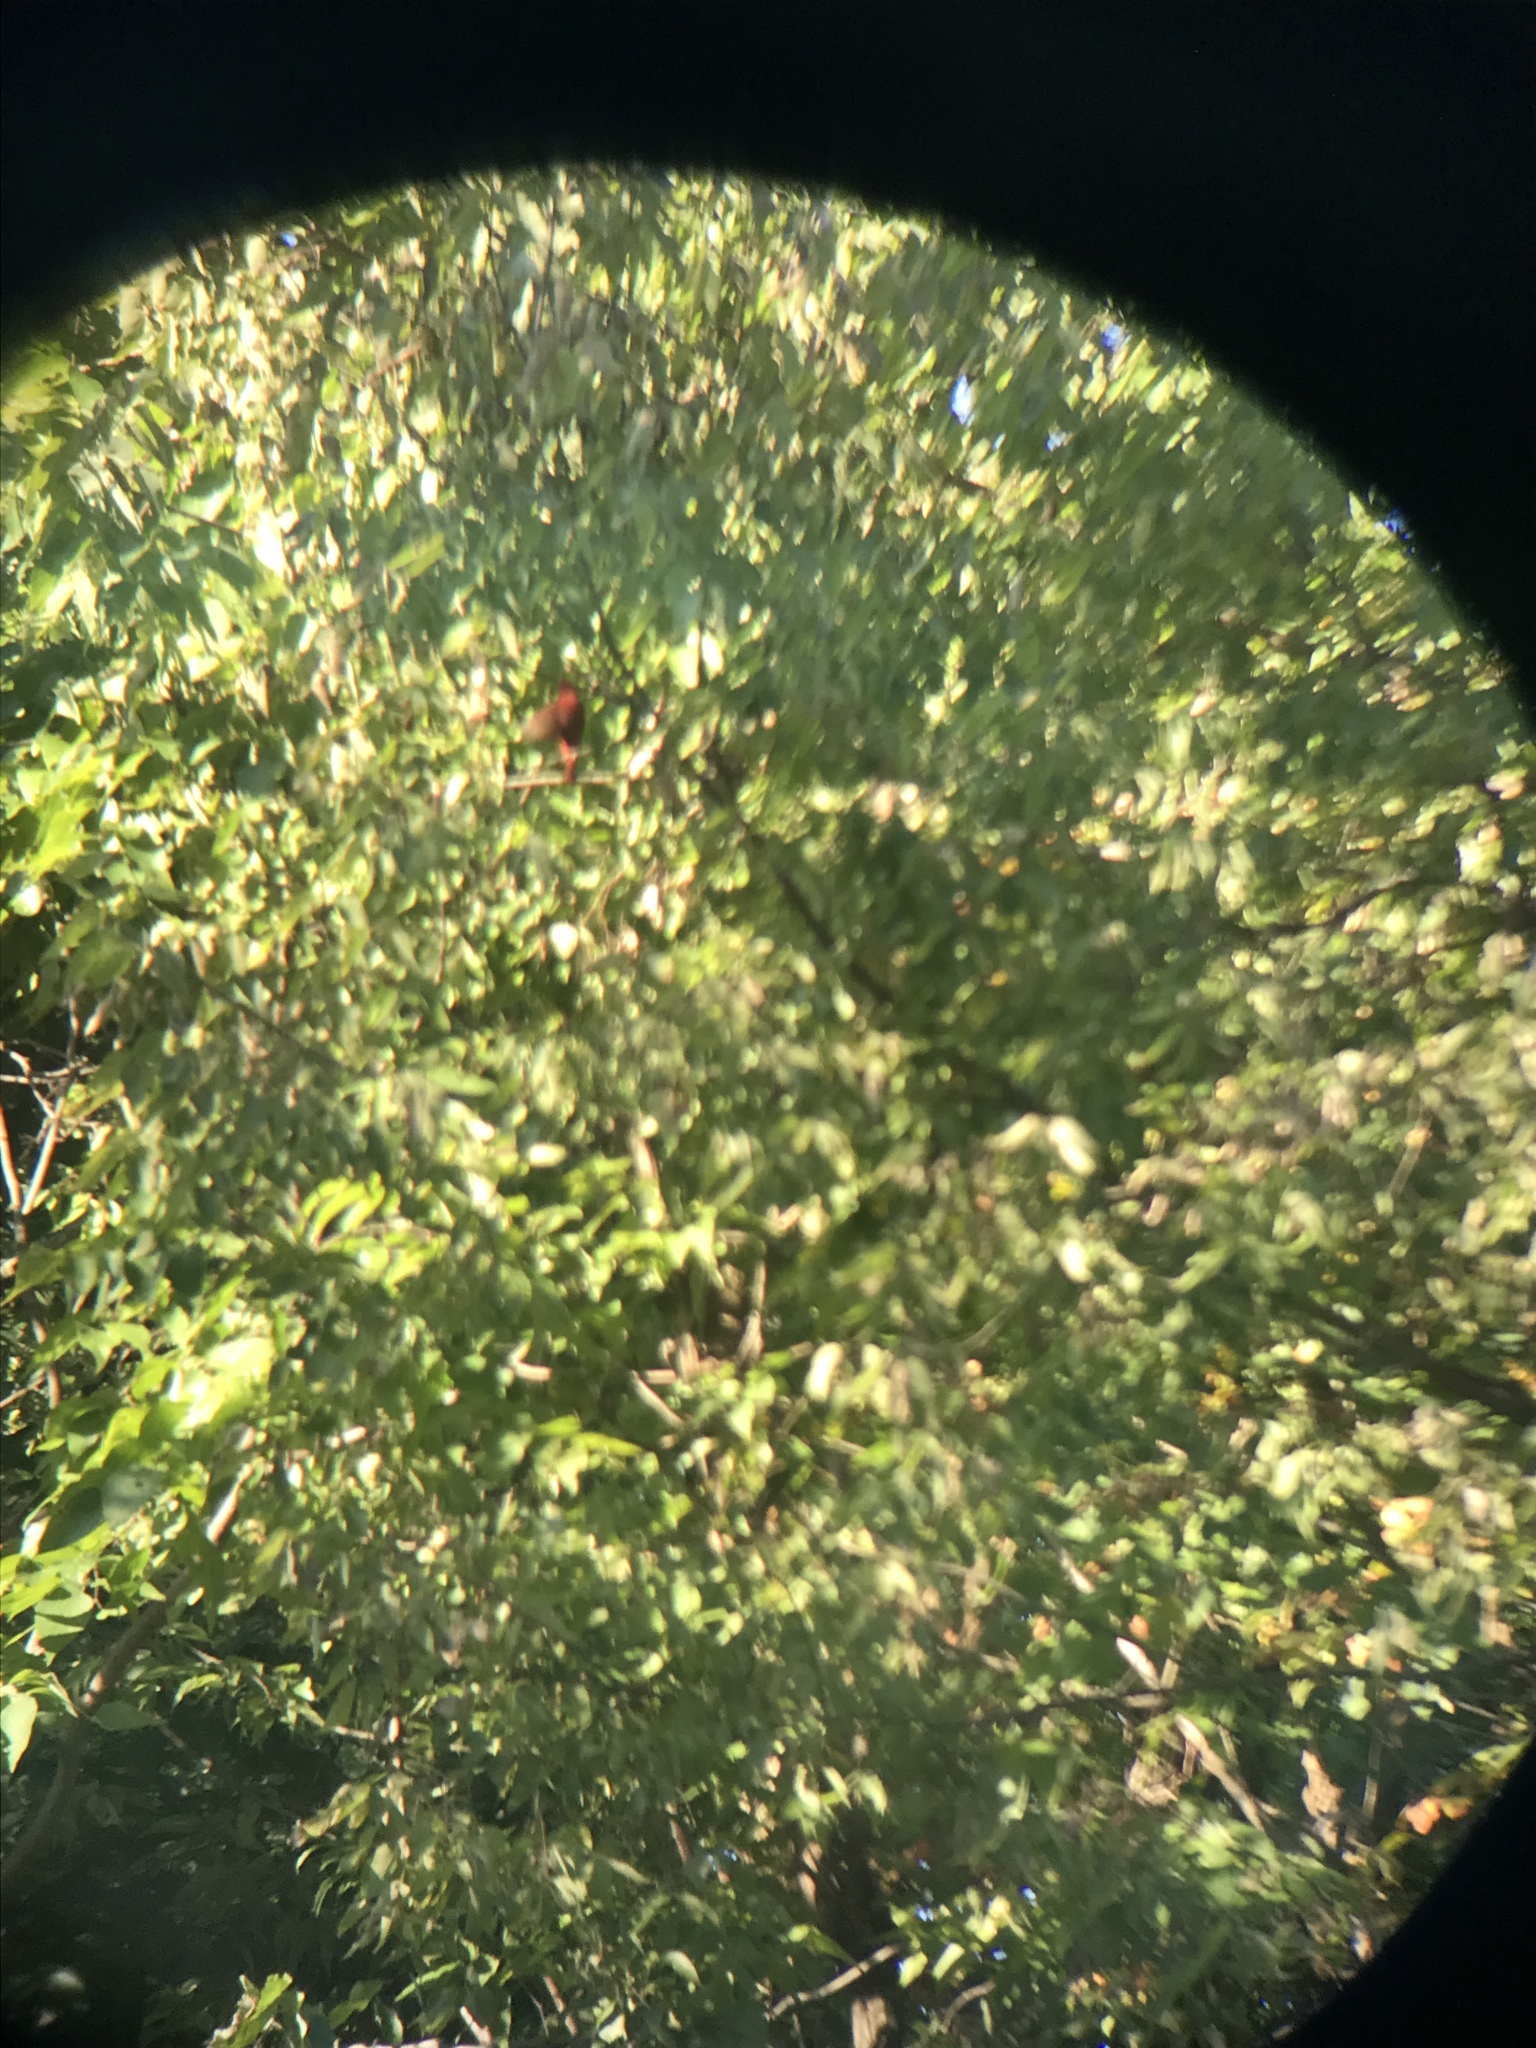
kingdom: Animalia
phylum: Chordata
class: Aves
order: Passeriformes
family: Cardinalidae
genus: Piranga
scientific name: Piranga rubra
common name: Summer tanager
